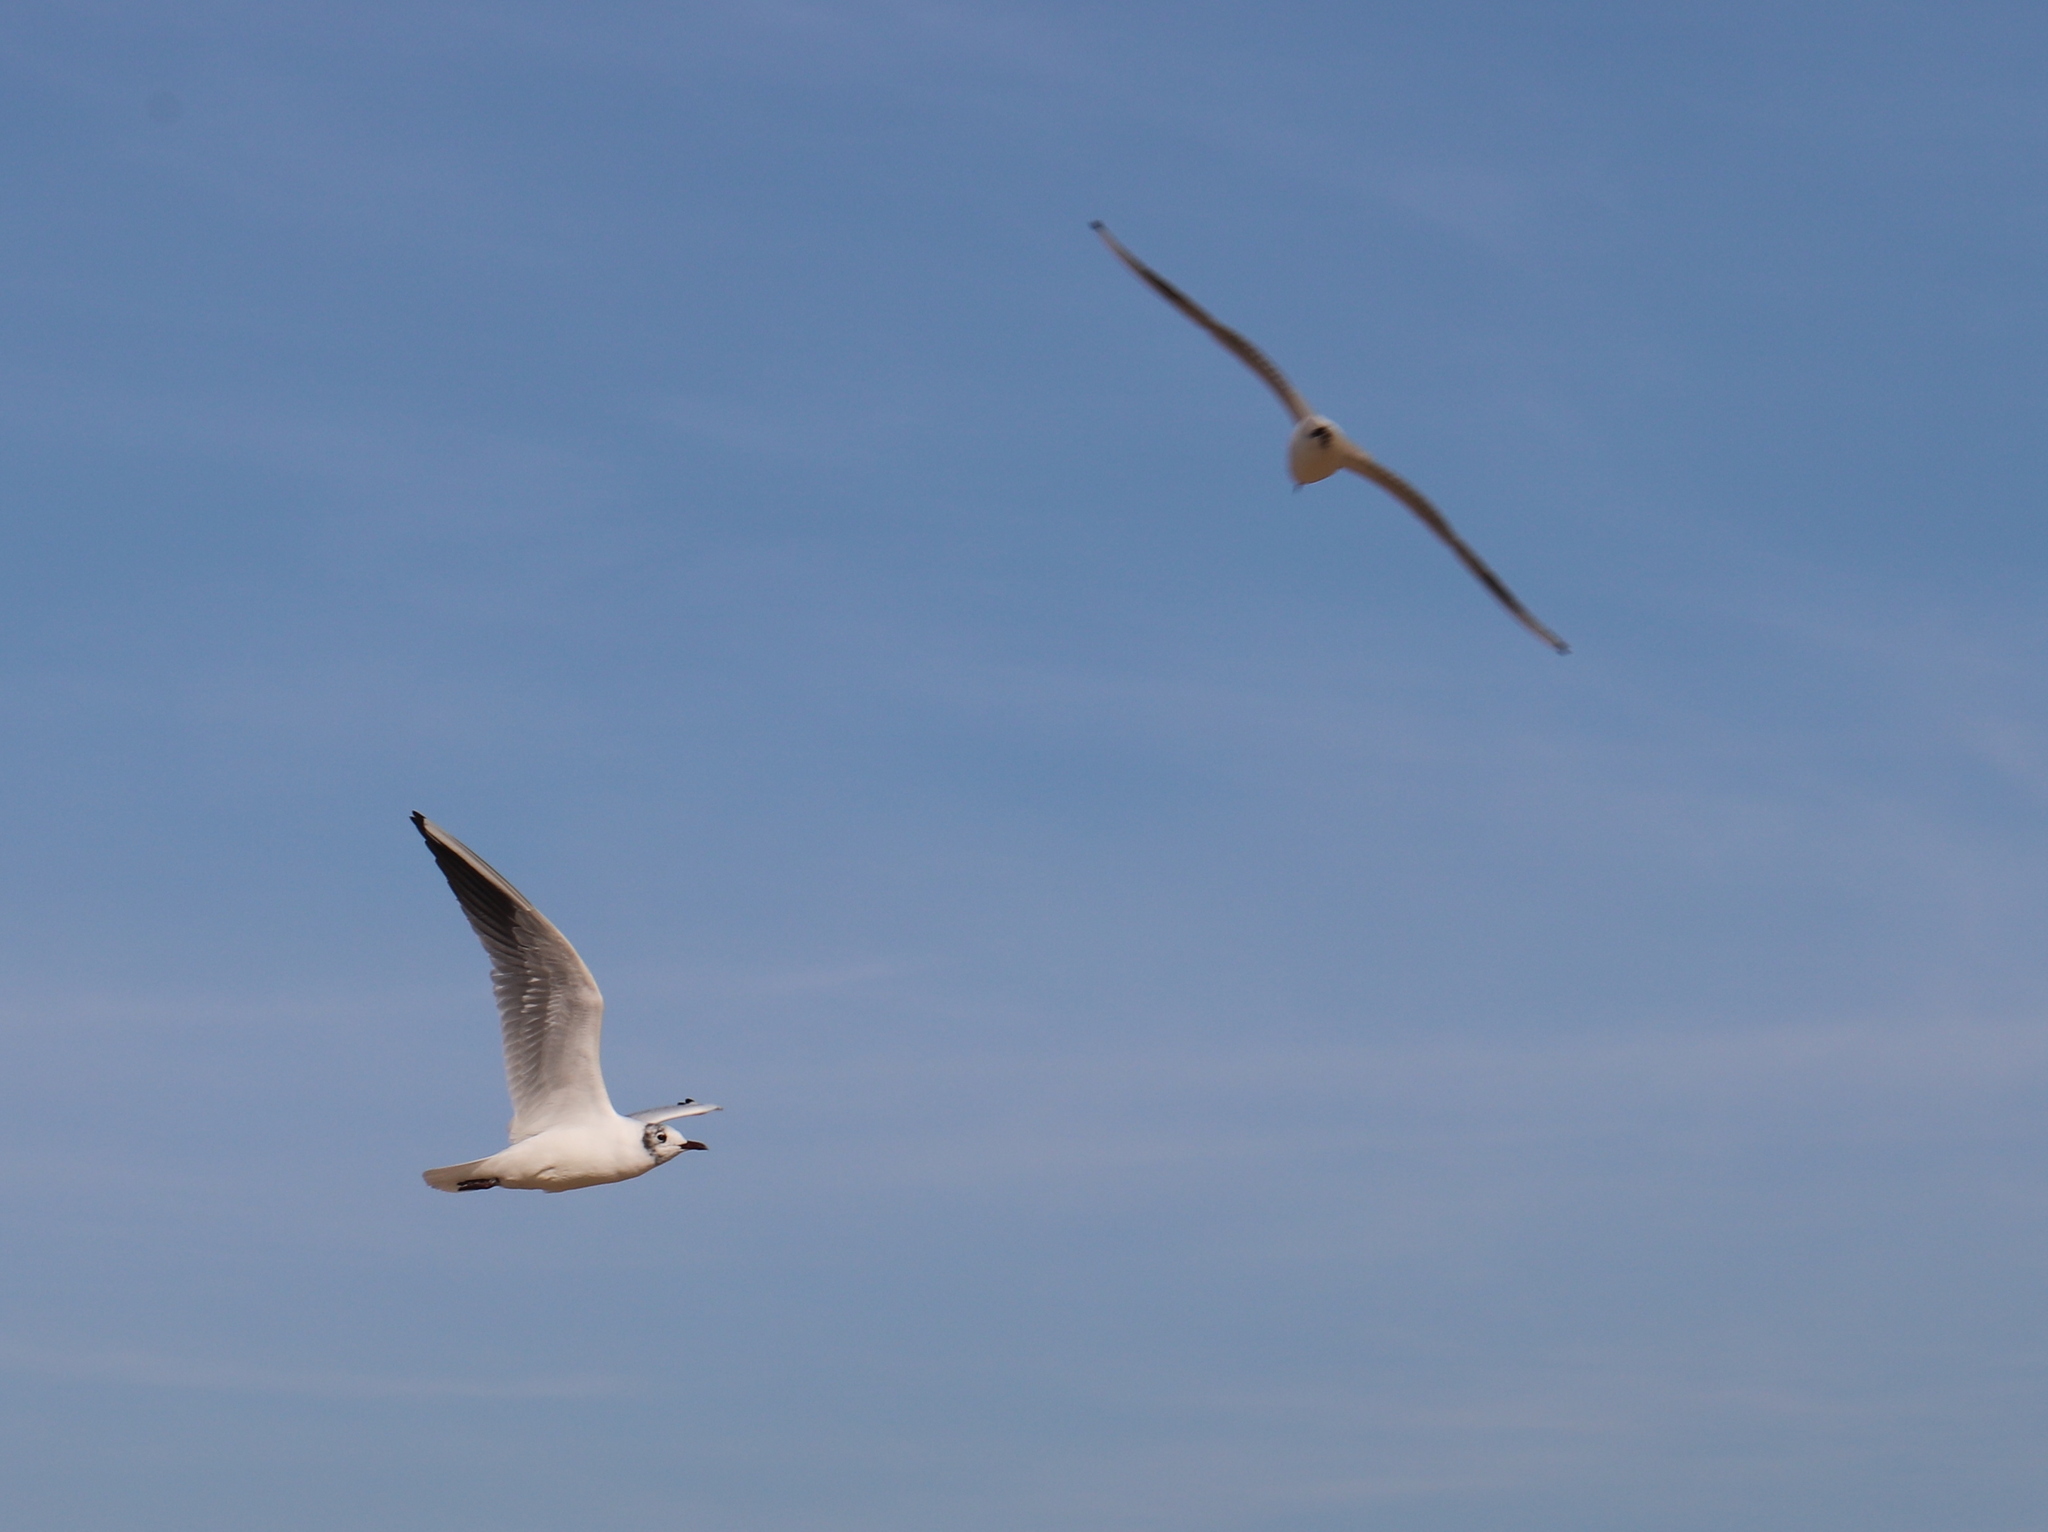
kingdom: Animalia
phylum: Chordata
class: Aves
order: Charadriiformes
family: Laridae
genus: Chroicocephalus
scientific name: Chroicocephalus ridibundus
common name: Black-headed gull
